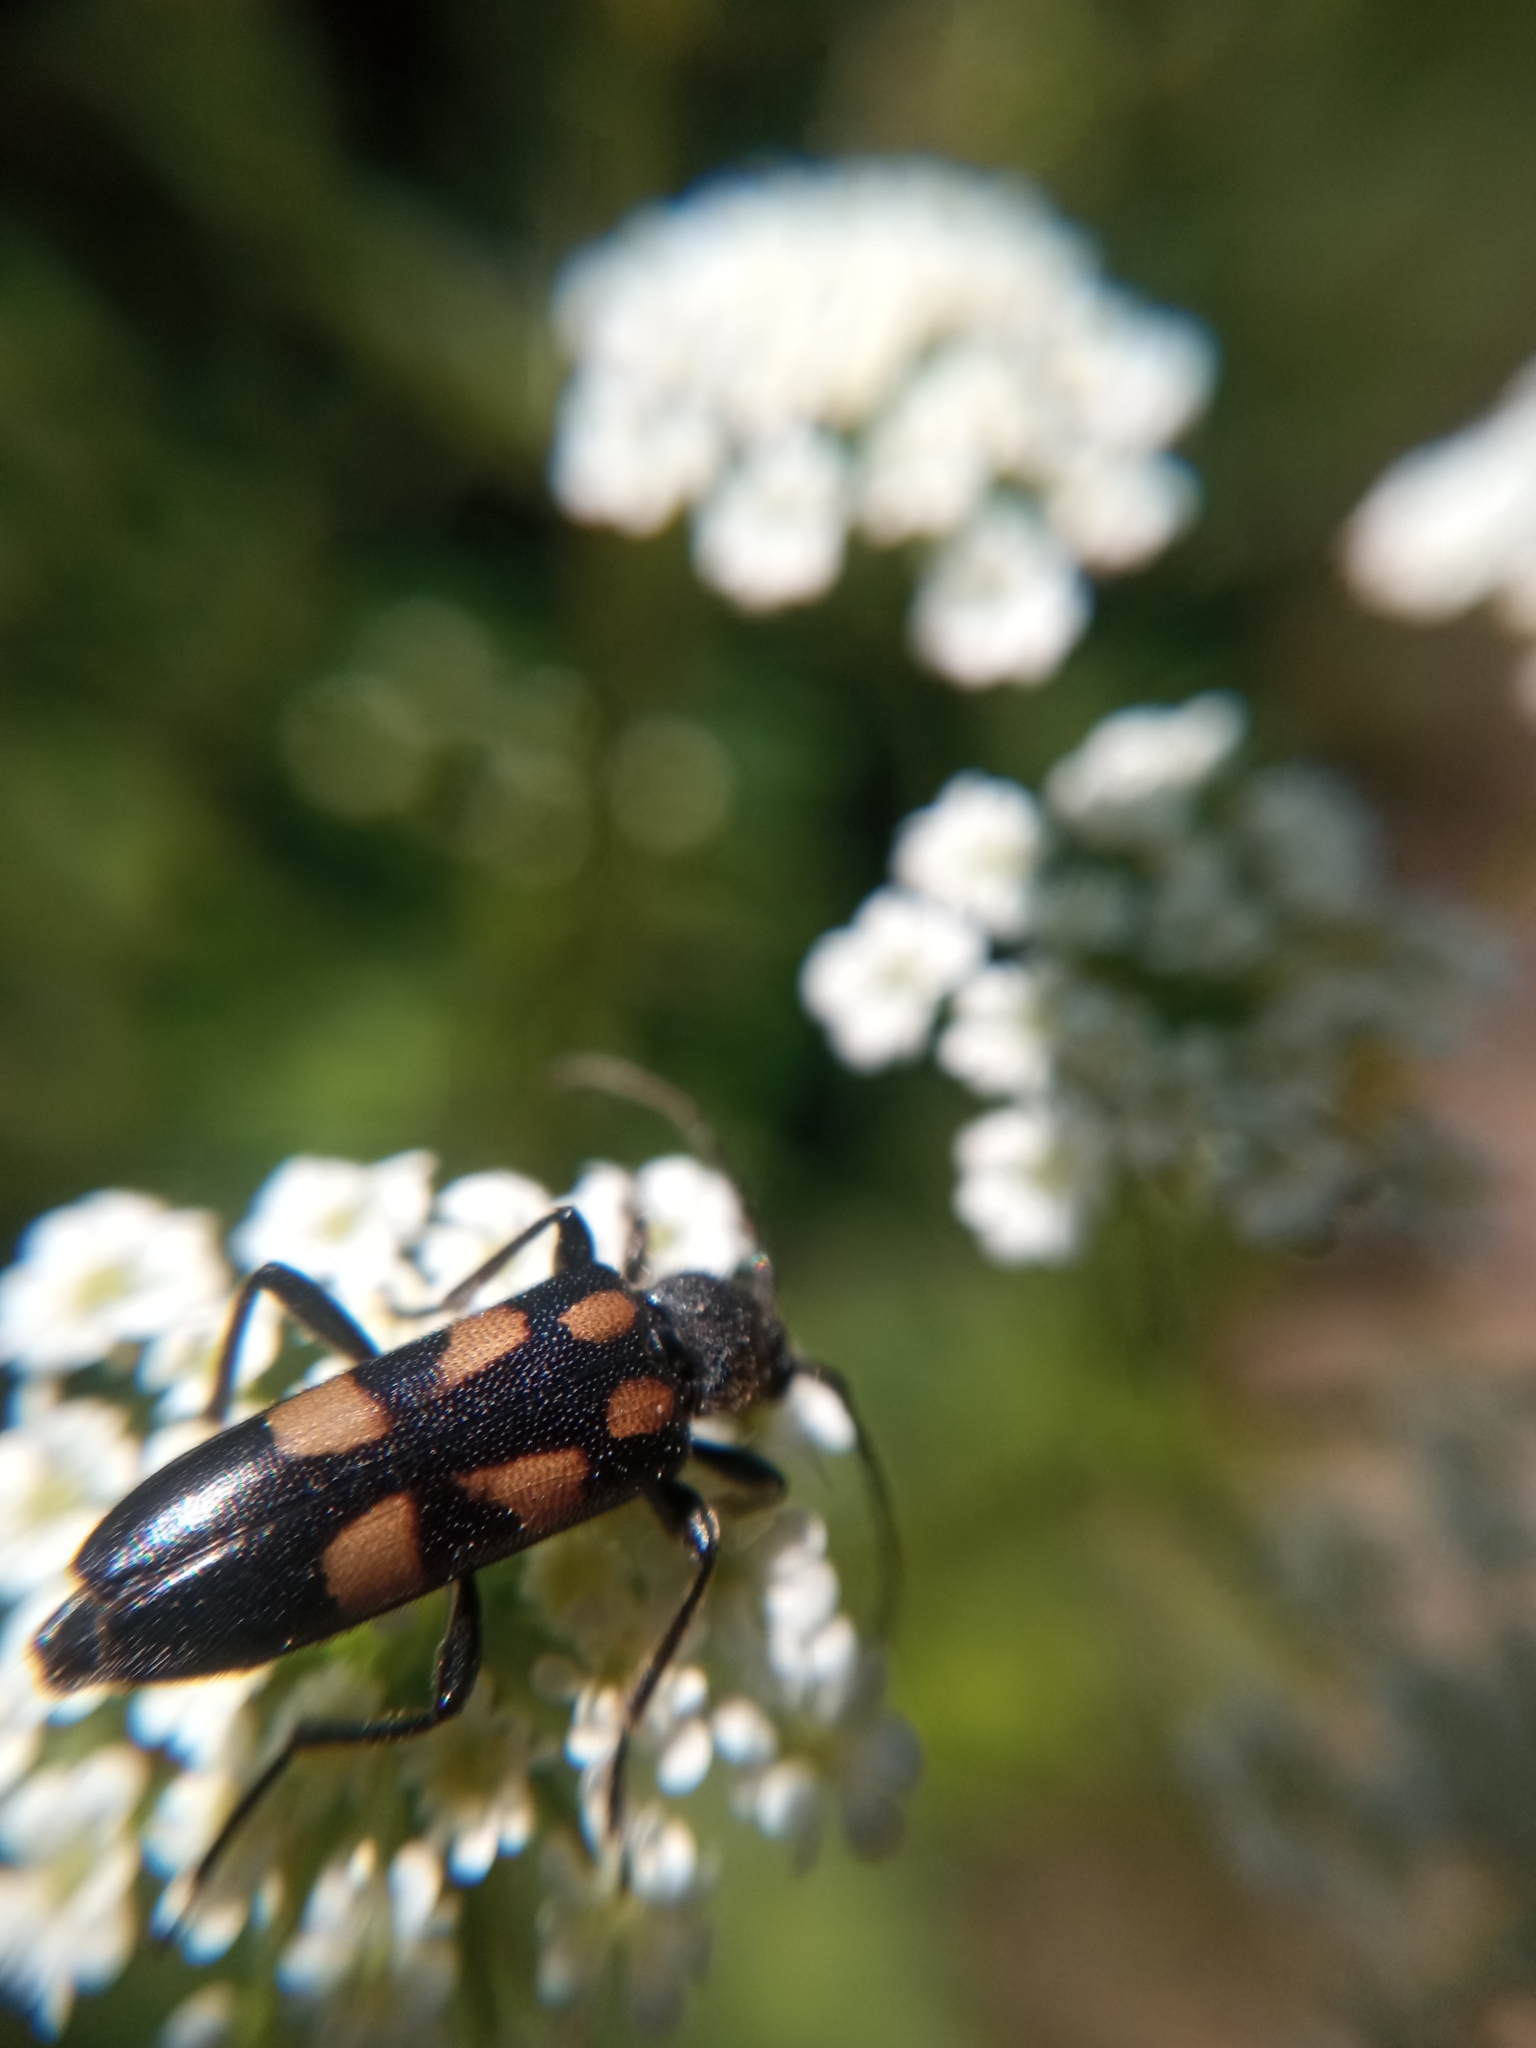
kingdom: Animalia
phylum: Arthropoda
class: Insecta
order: Coleoptera
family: Cerambycidae
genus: Anoplodera
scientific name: Anoplodera sexguttata
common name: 6 spotted longhorn
